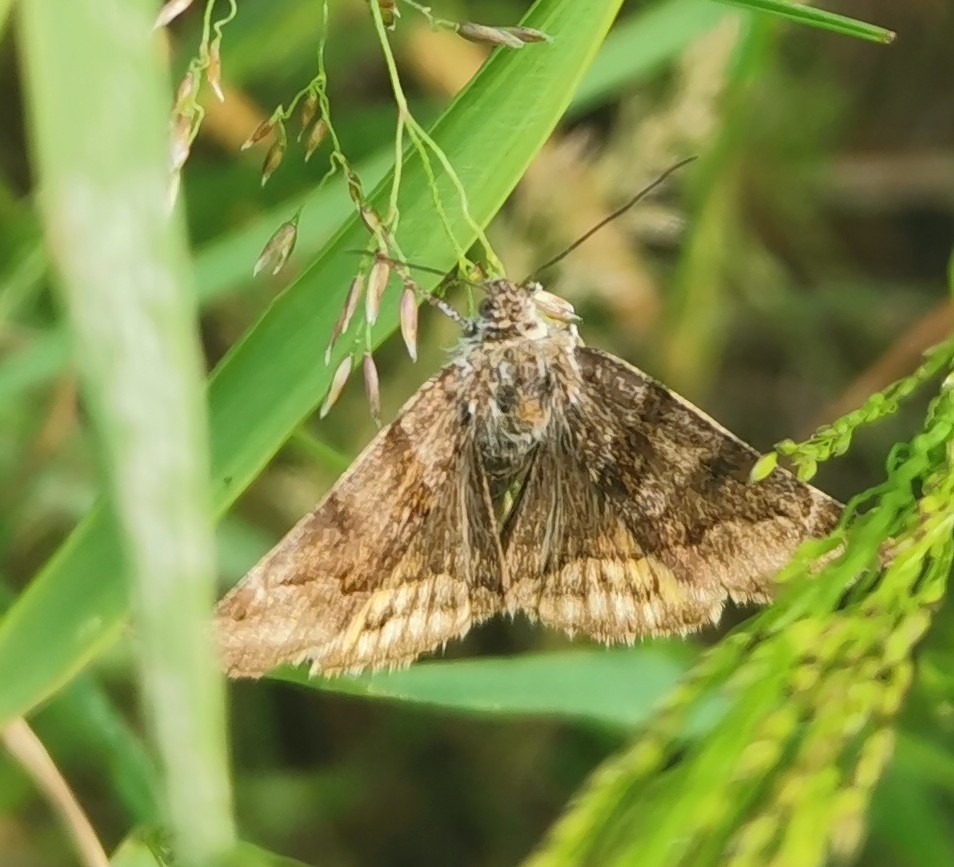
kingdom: Animalia
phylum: Arthropoda
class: Insecta
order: Lepidoptera
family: Erebidae
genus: Euclidia
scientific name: Euclidia glyphica
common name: Burnet companion
